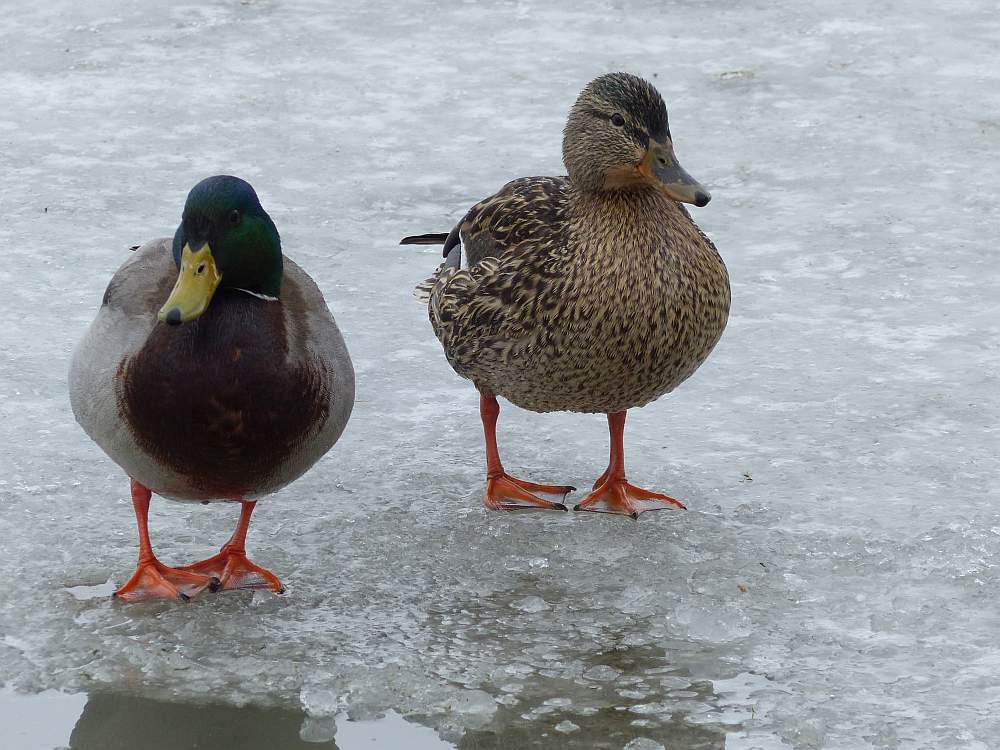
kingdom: Animalia
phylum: Chordata
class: Aves
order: Anseriformes
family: Anatidae
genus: Anas
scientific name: Anas platyrhynchos
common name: Mallard
